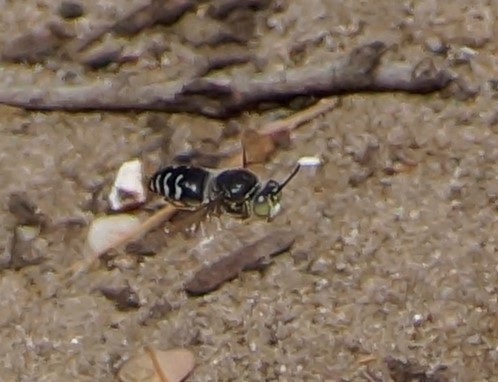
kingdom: Animalia
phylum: Arthropoda
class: Insecta
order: Hymenoptera
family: Crabronidae
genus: Bembix
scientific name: Bembix
